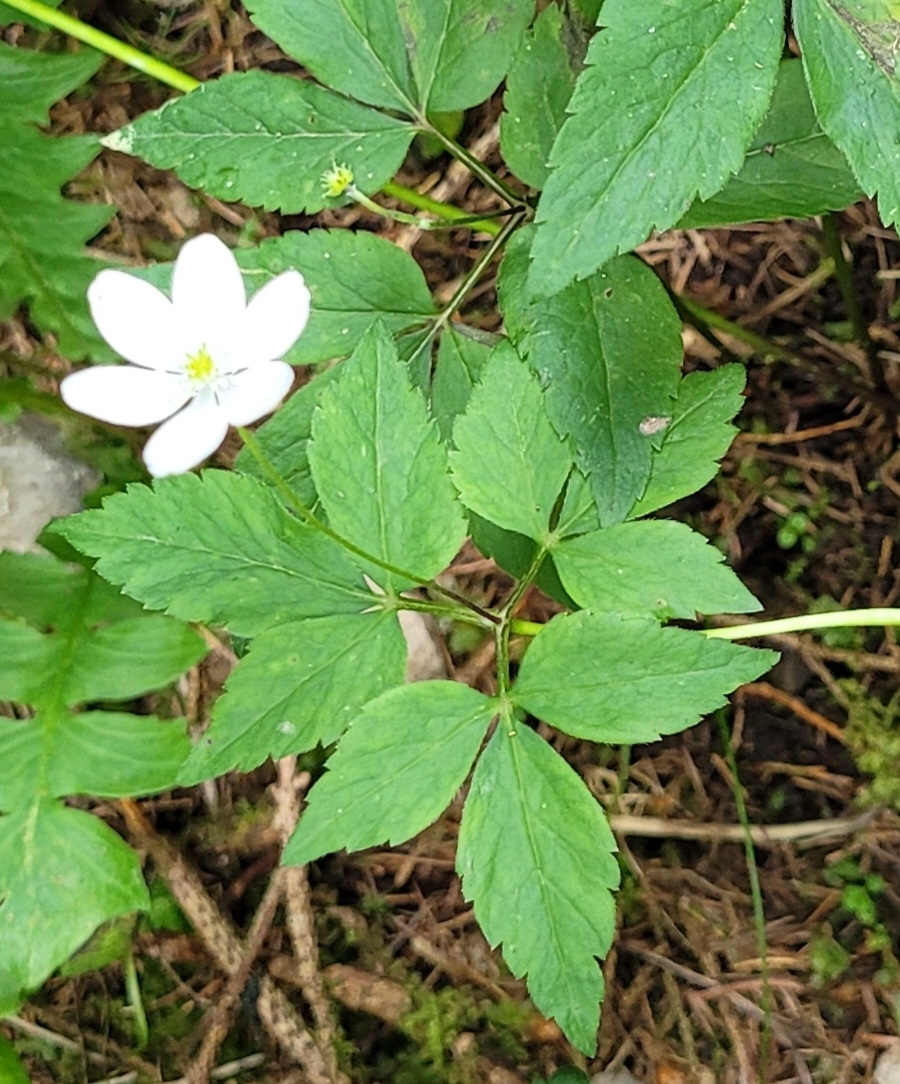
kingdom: Plantae
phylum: Tracheophyta
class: Magnoliopsida
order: Ranunculales
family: Ranunculaceae
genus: Anemone
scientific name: Anemone trifolia
